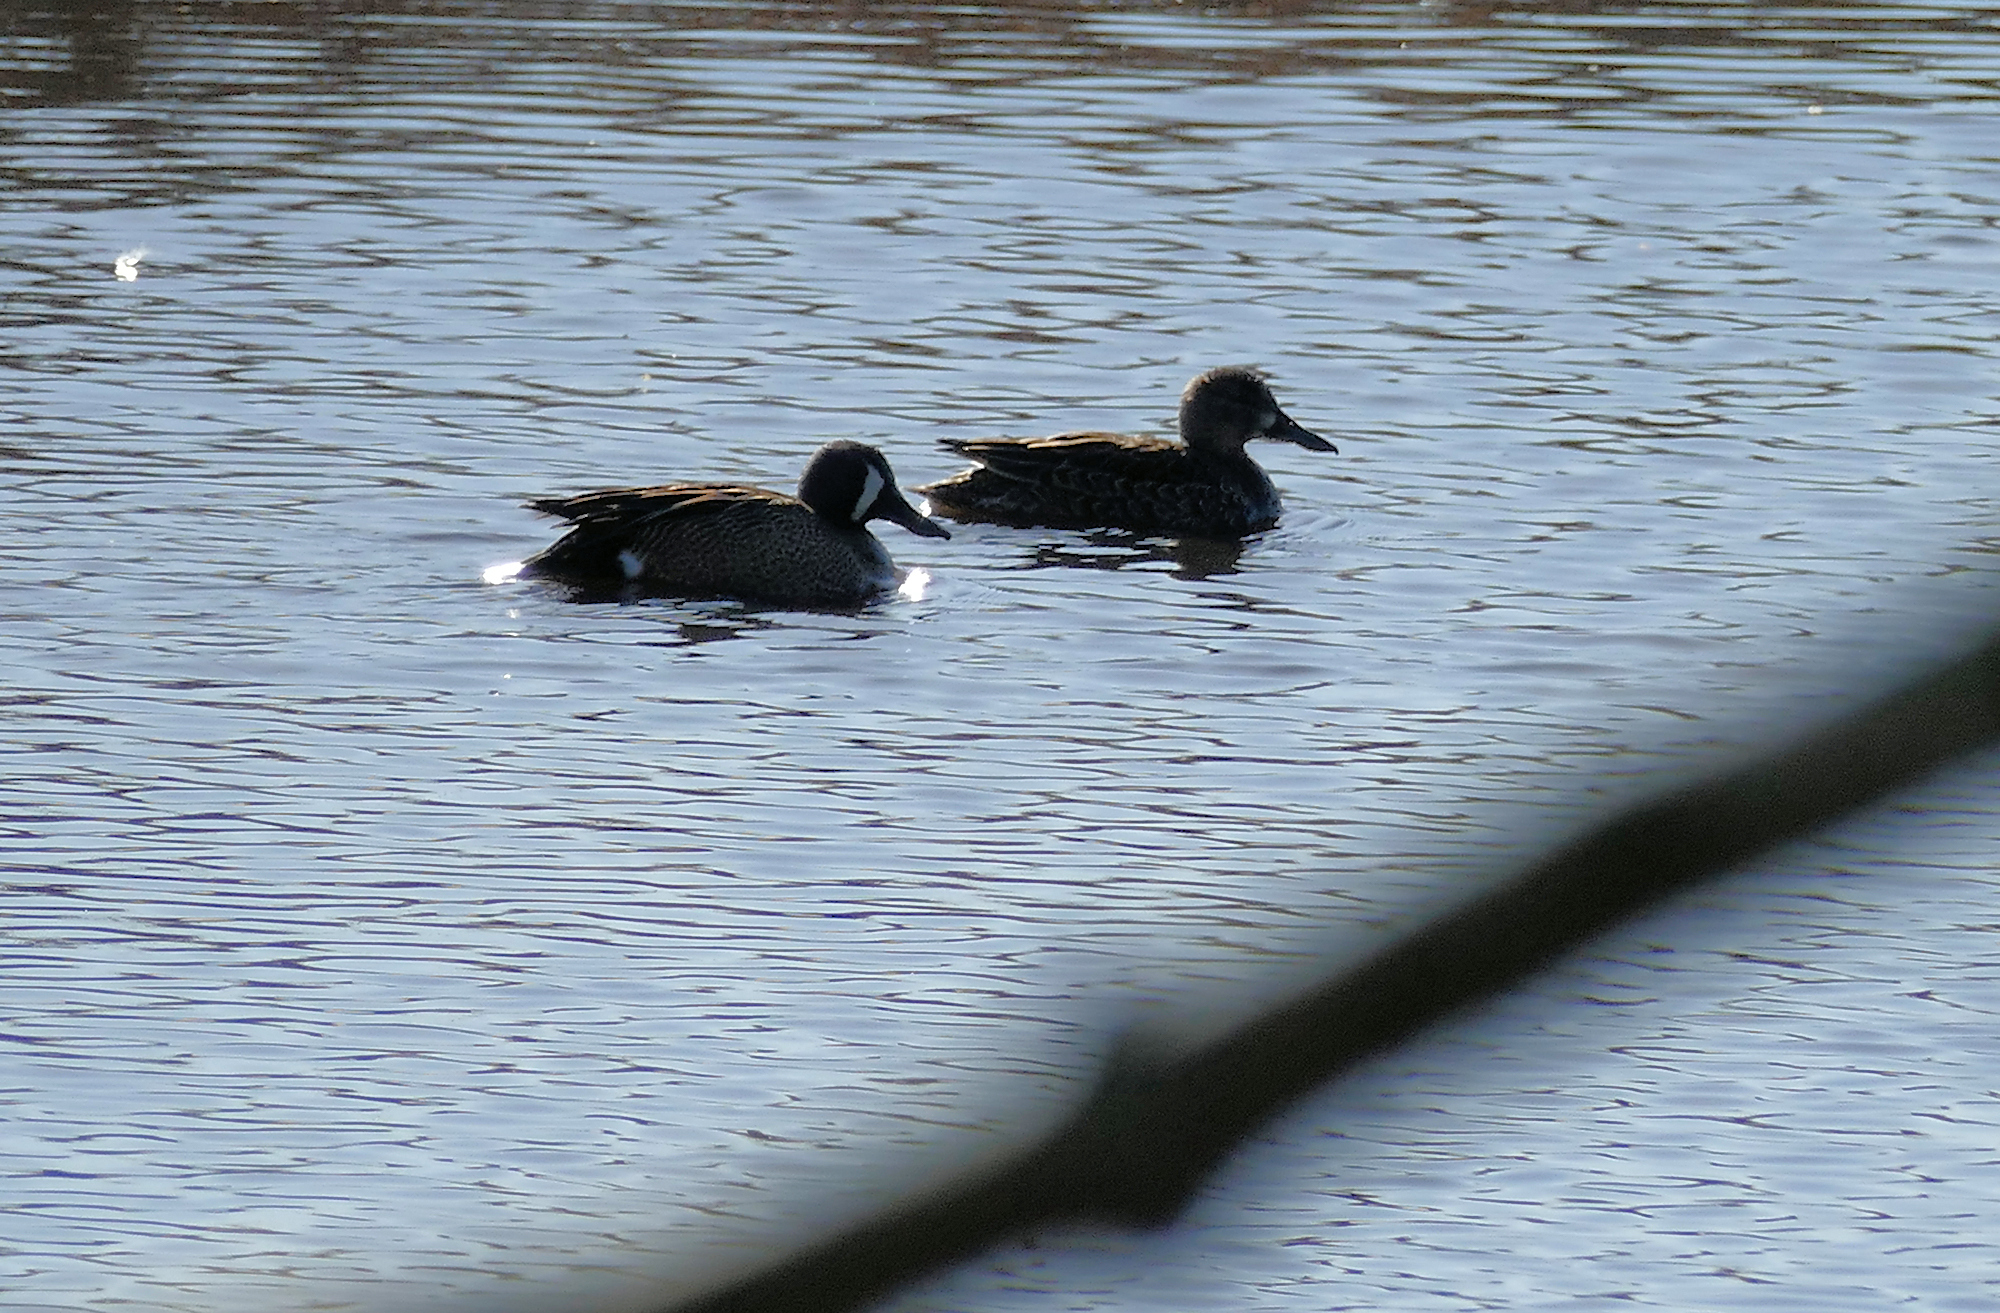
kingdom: Animalia
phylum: Chordata
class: Aves
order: Anseriformes
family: Anatidae
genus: Spatula
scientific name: Spatula discors
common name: Blue-winged teal
